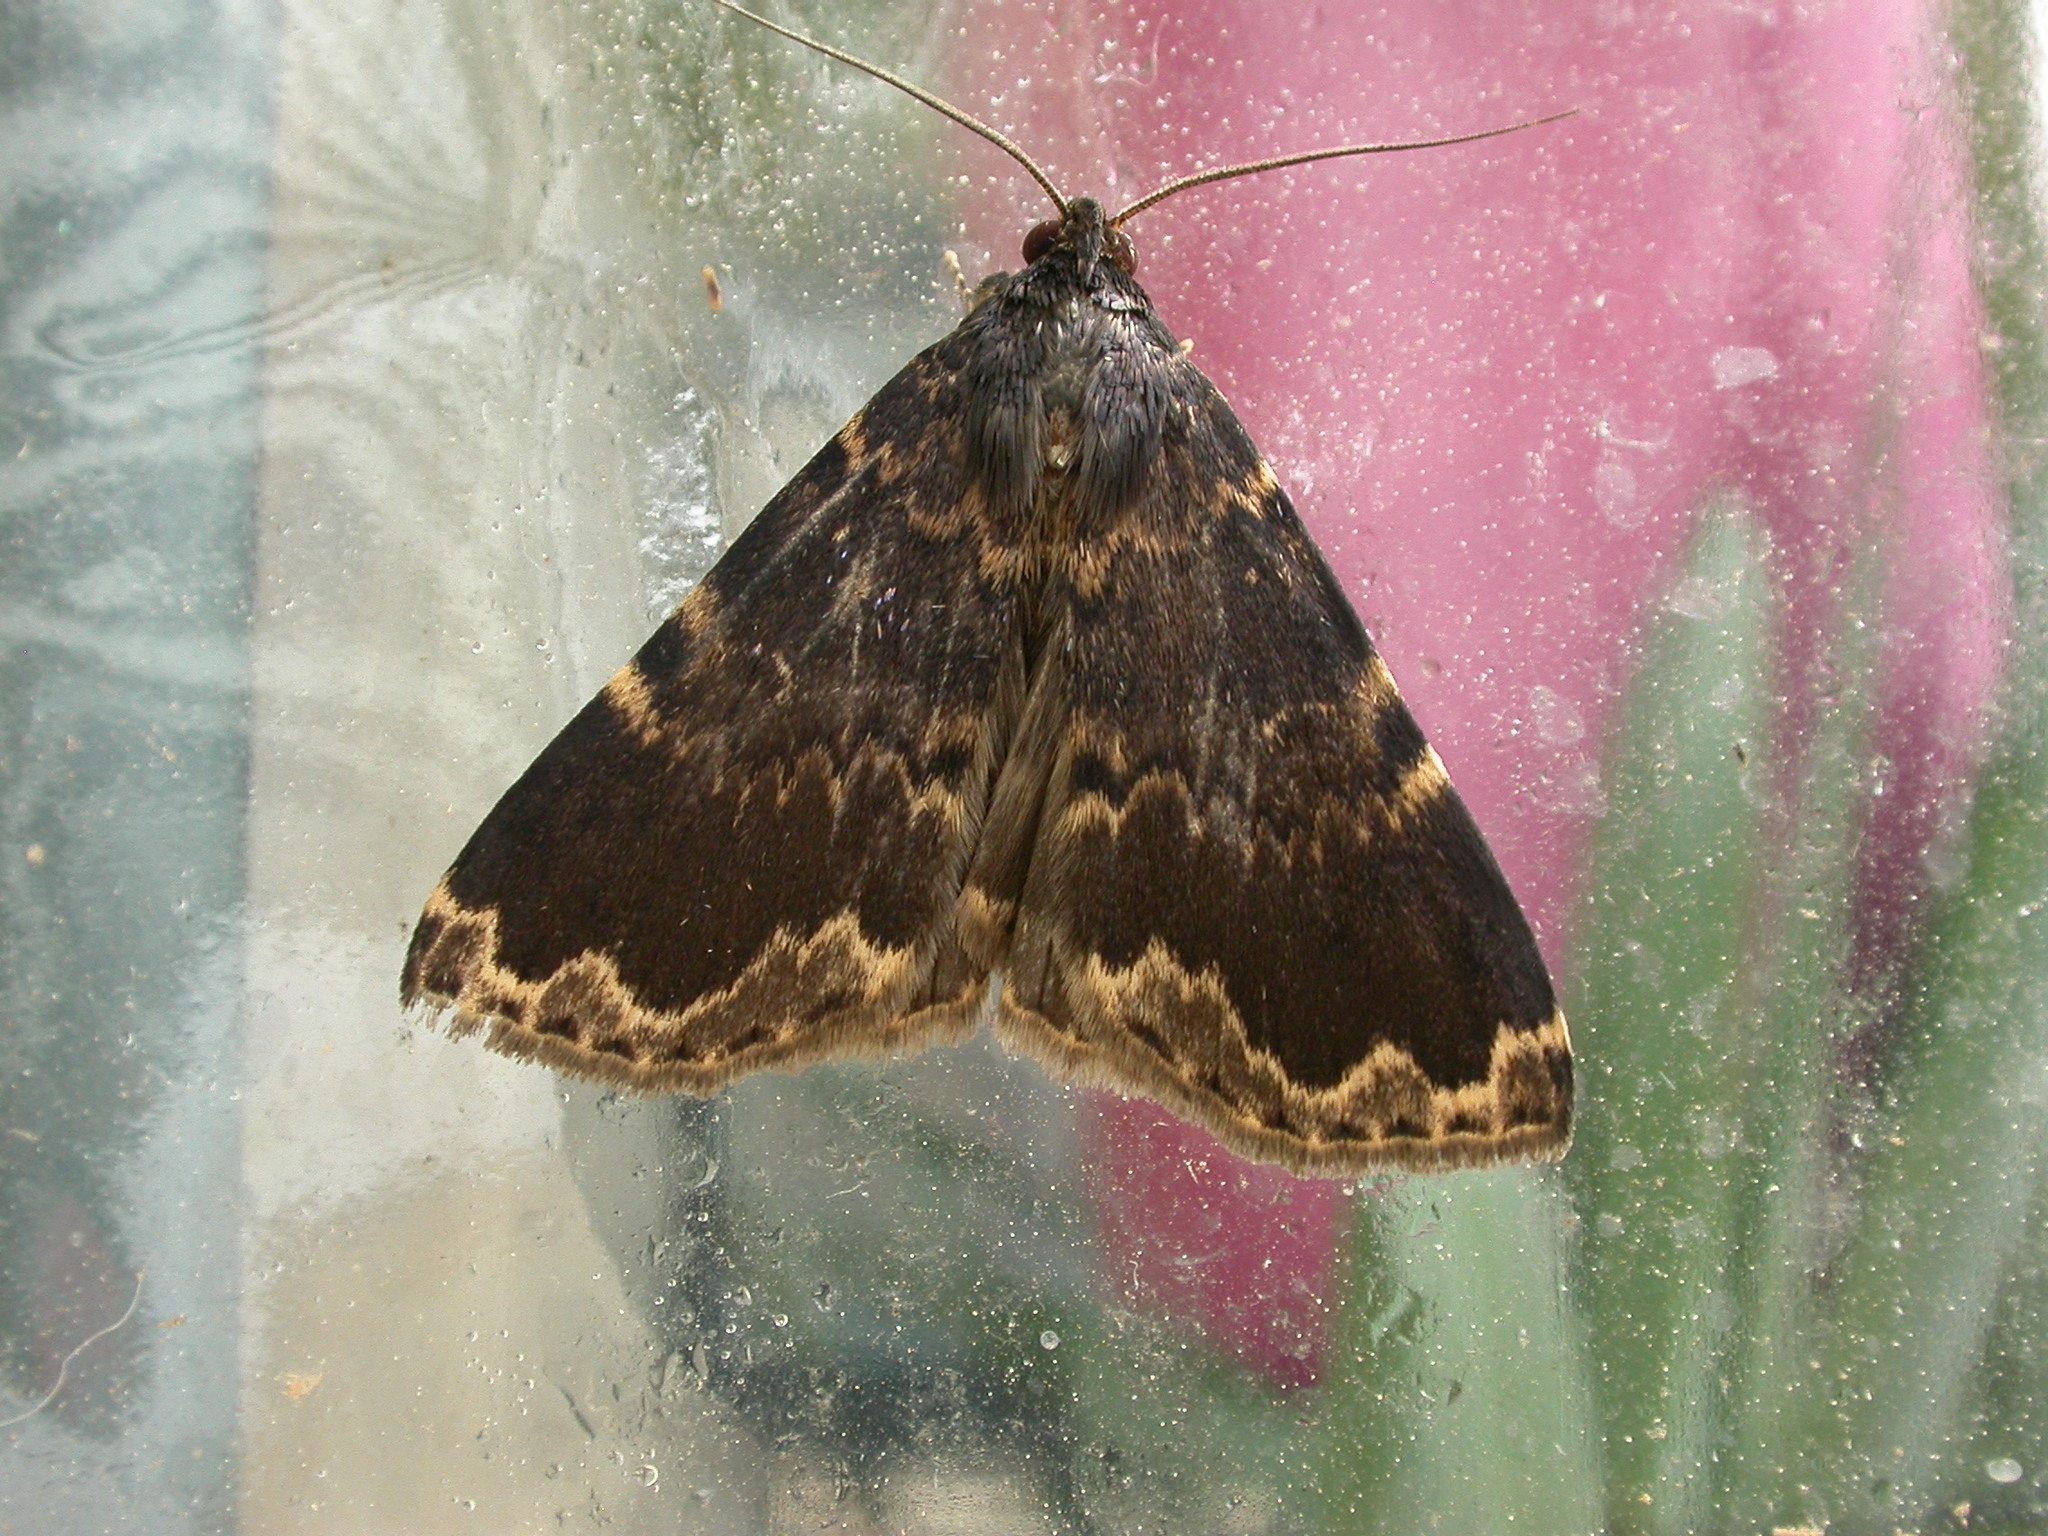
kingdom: Animalia
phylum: Arthropoda
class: Insecta
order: Lepidoptera
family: Erebidae
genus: Mormoscopa
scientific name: Mormoscopa sordescens
